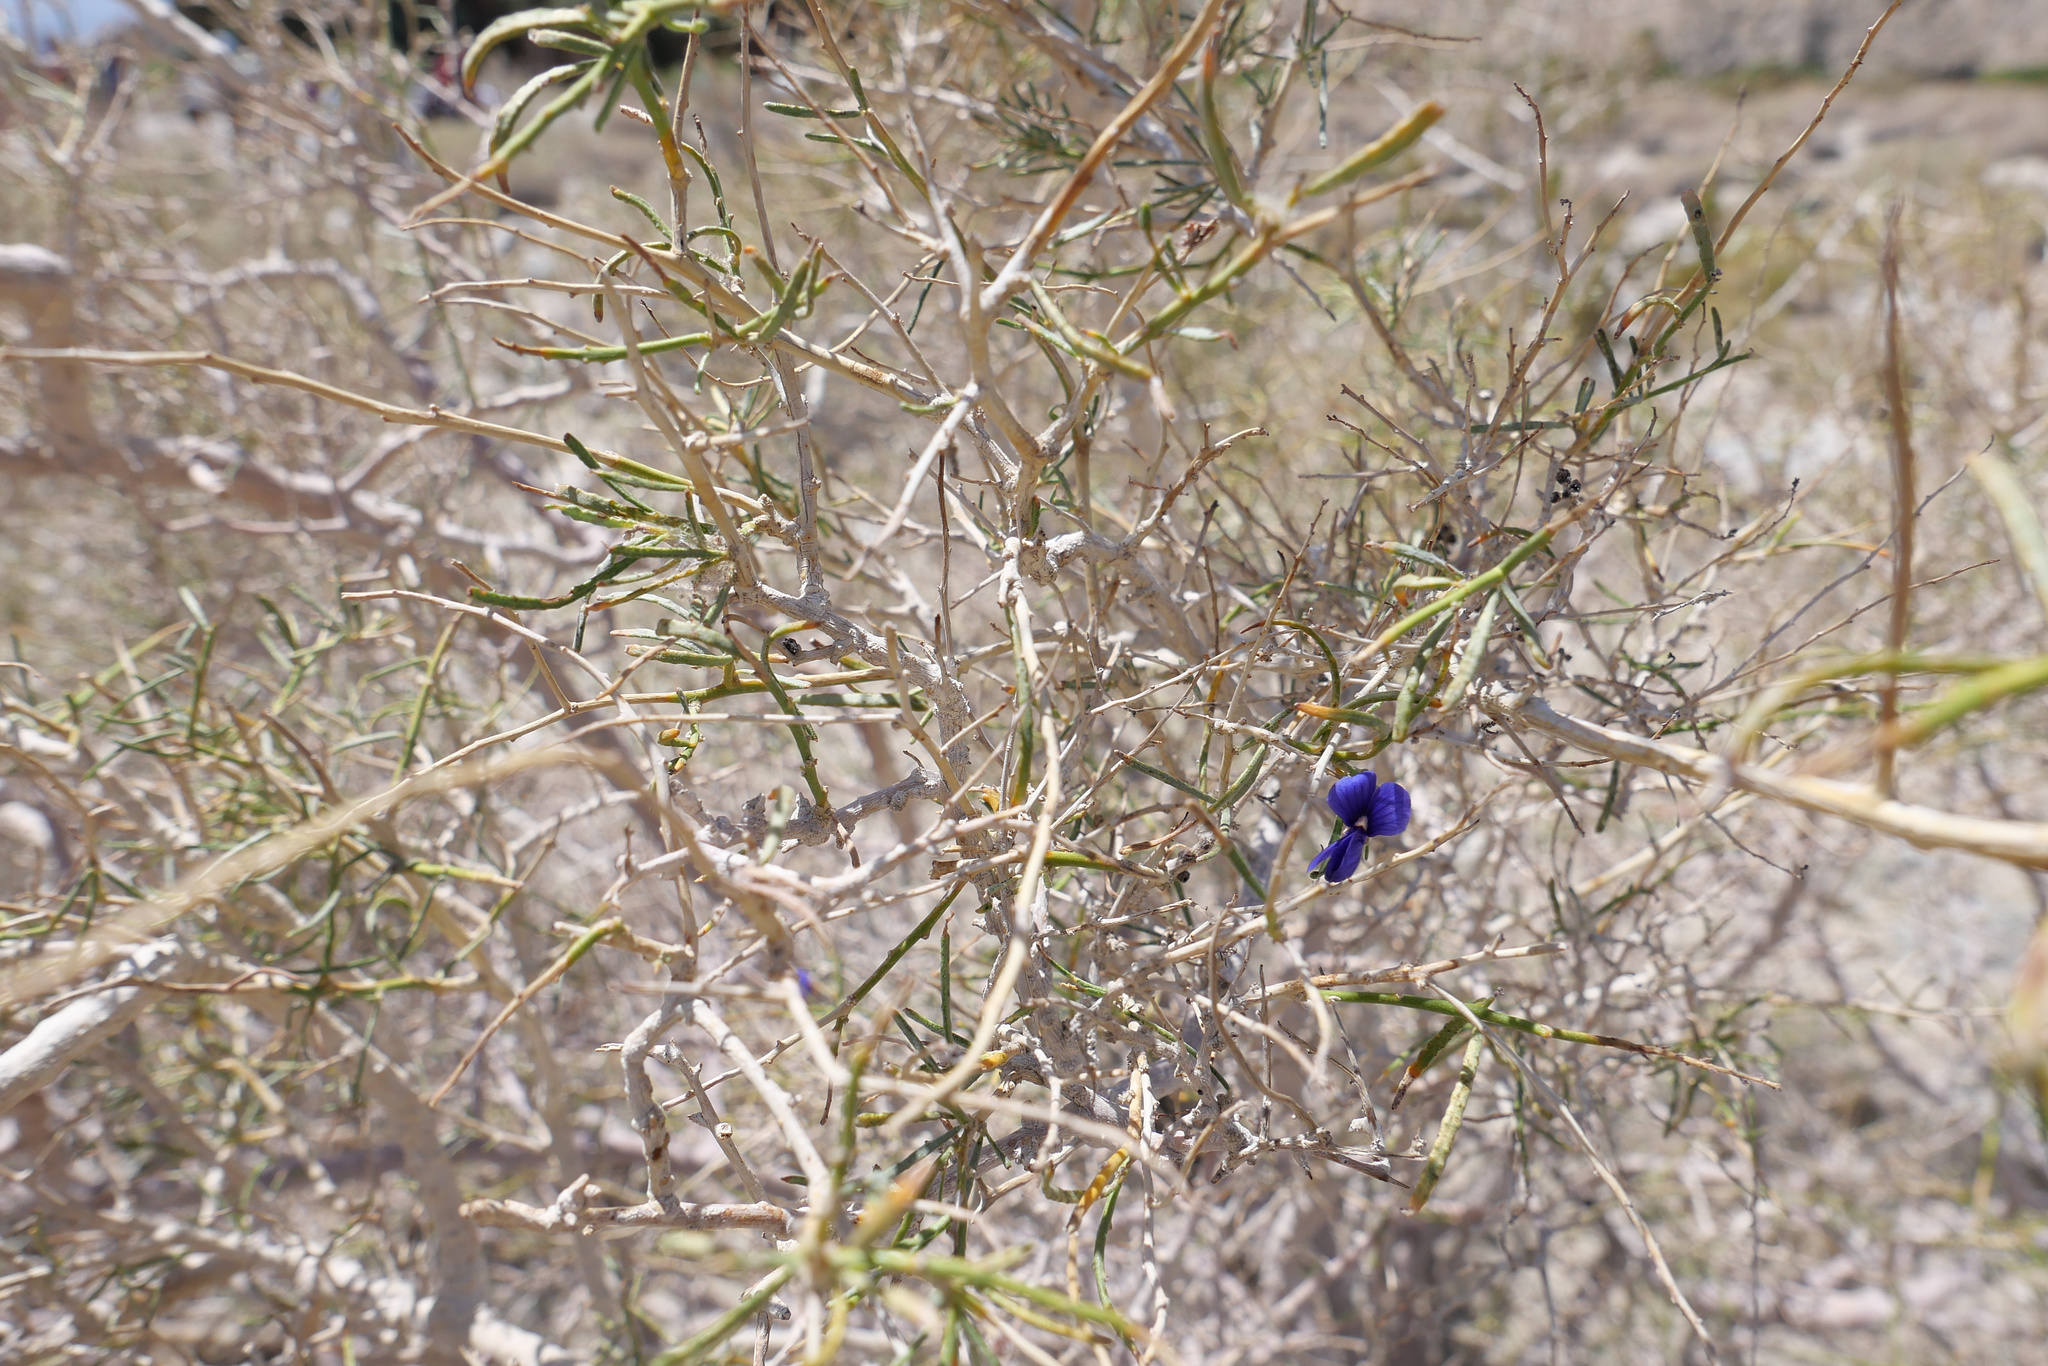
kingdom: Plantae
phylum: Tracheophyta
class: Magnoliopsida
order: Fabales
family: Fabaceae
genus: Psorothamnus
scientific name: Psorothamnus schottii
